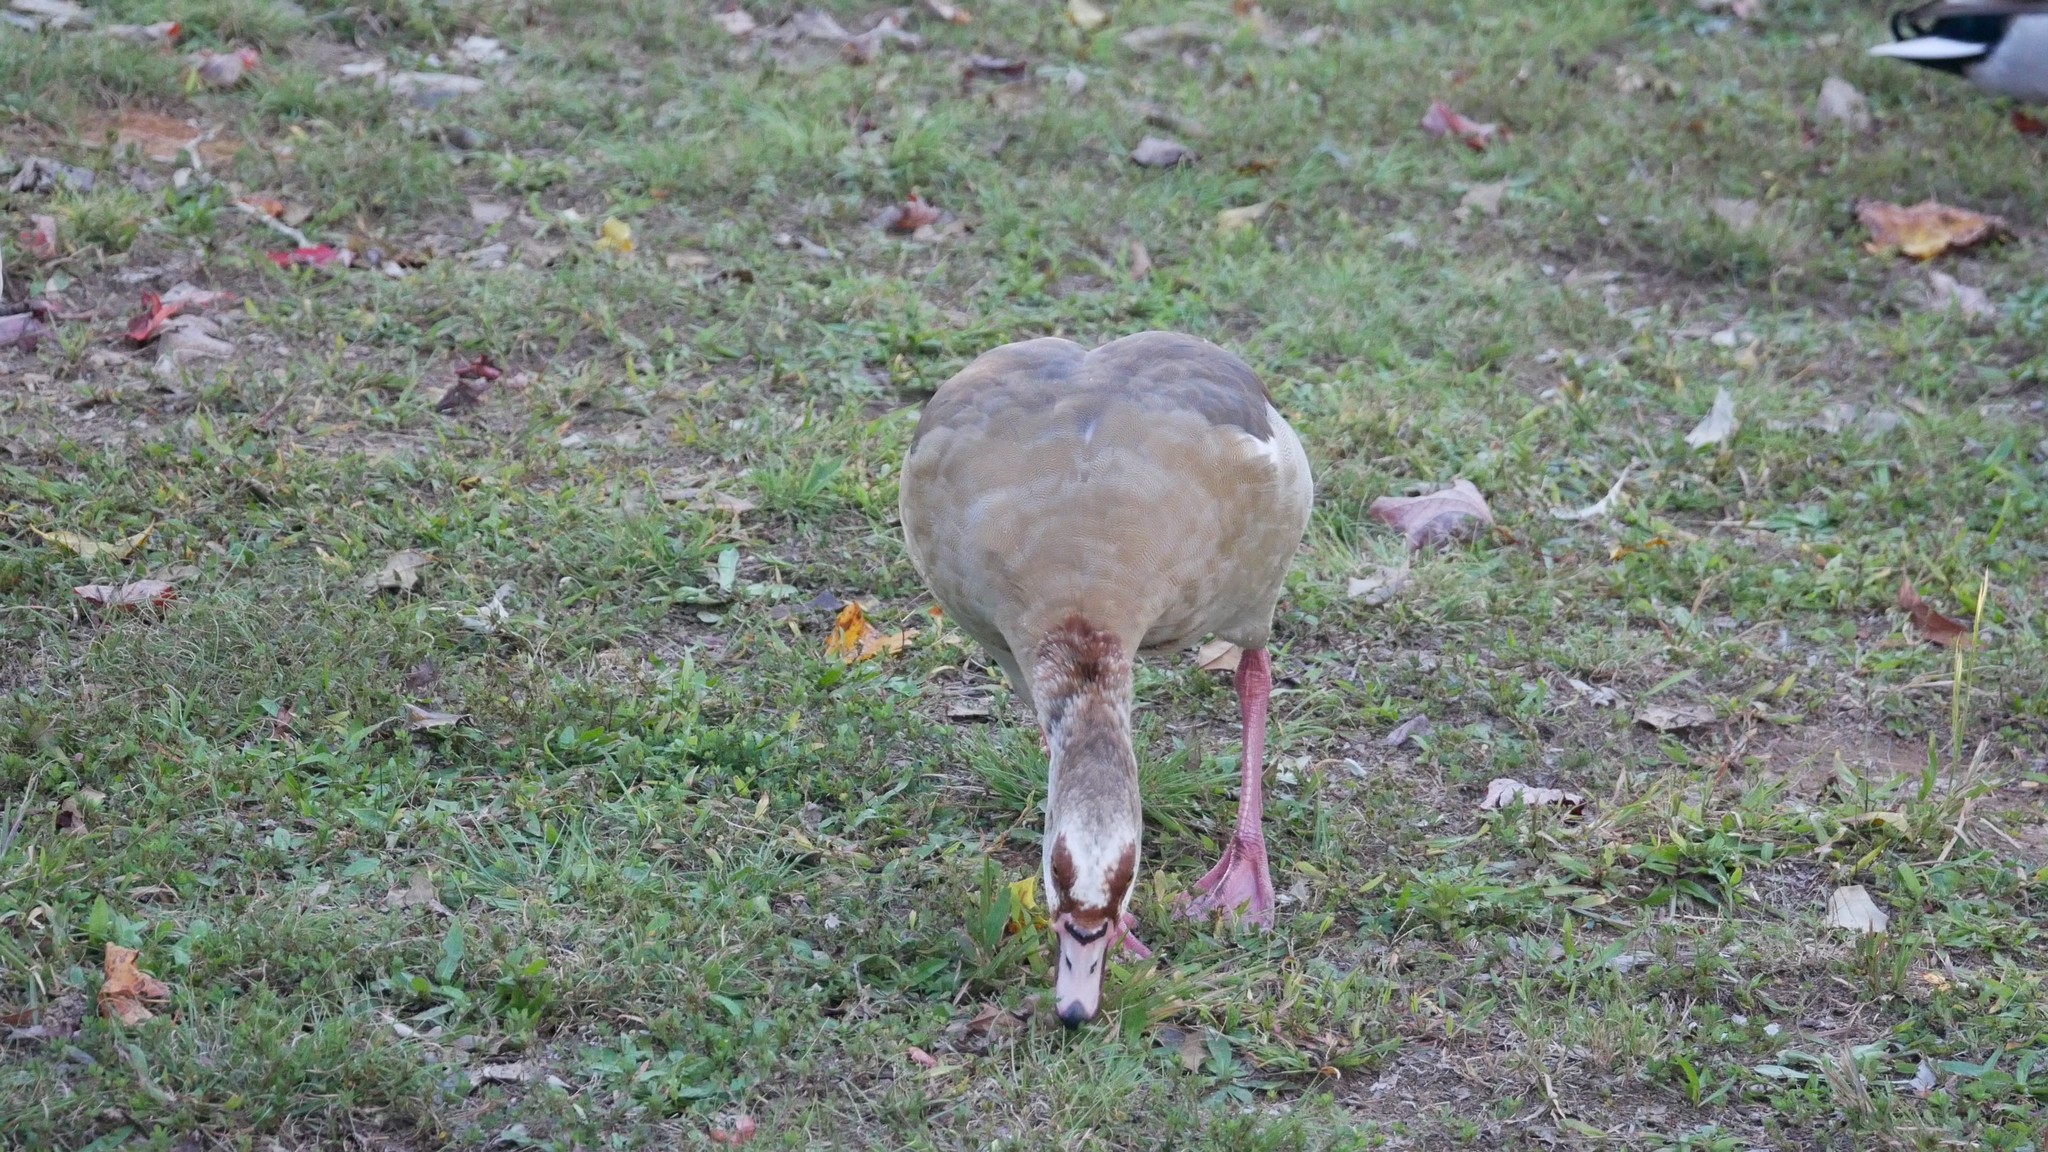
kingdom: Animalia
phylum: Chordata
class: Aves
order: Anseriformes
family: Anatidae
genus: Alopochen
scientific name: Alopochen aegyptiaca
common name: Egyptian goose
